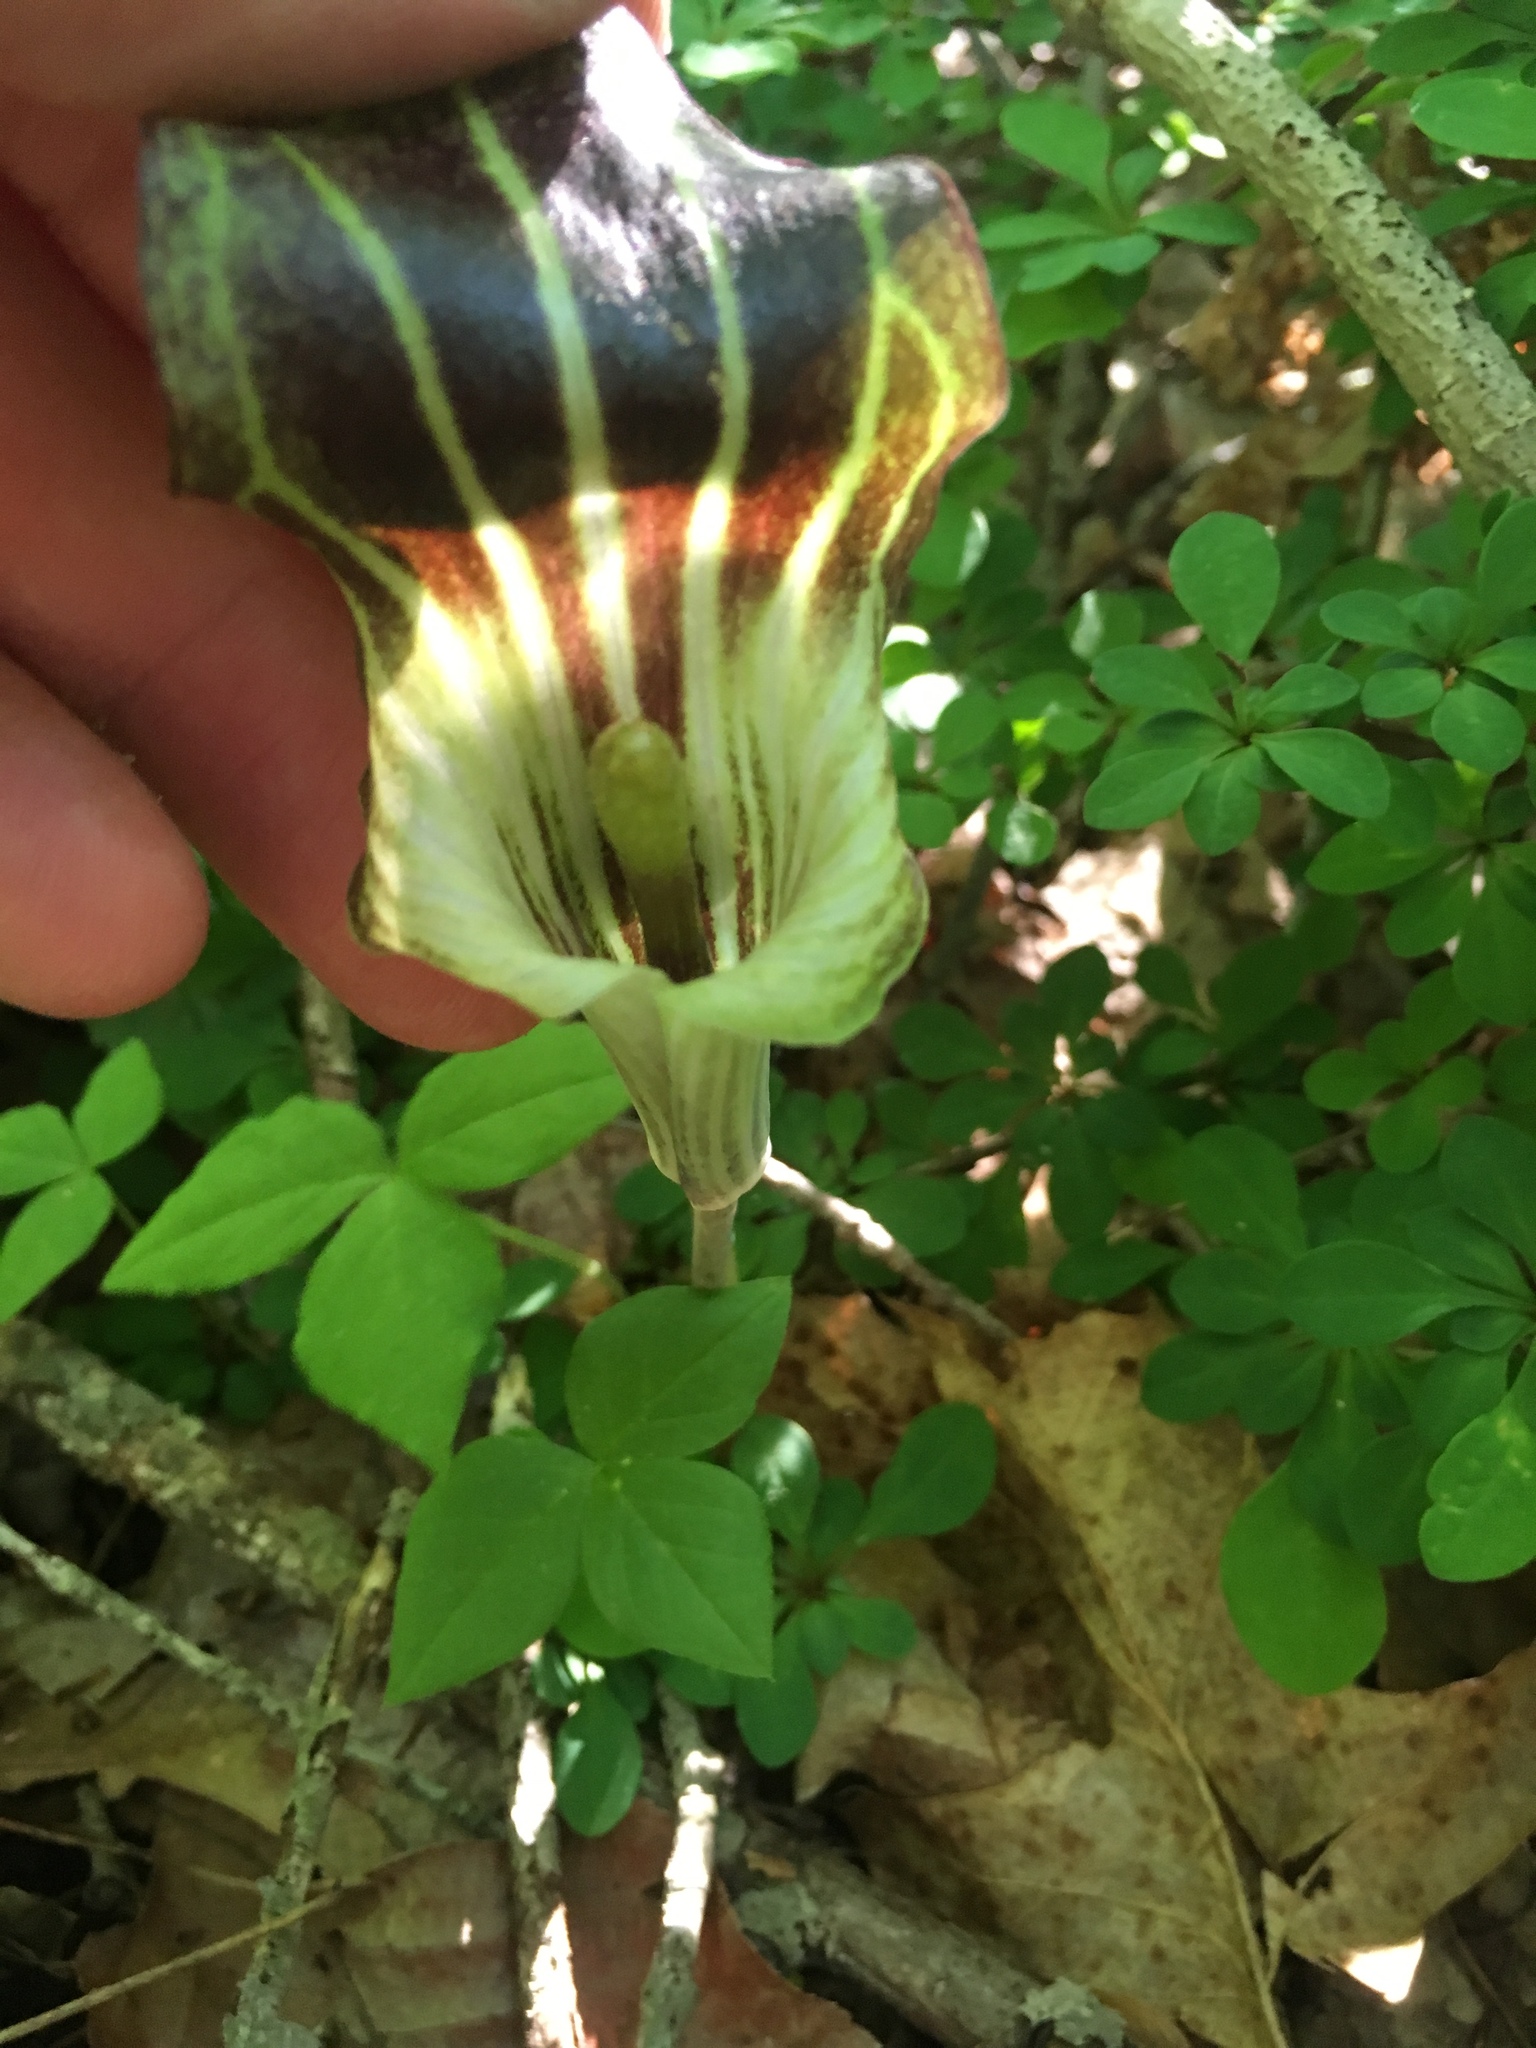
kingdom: Plantae
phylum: Tracheophyta
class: Liliopsida
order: Alismatales
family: Araceae
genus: Arisaema
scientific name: Arisaema triphyllum
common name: Jack-in-the-pulpit
